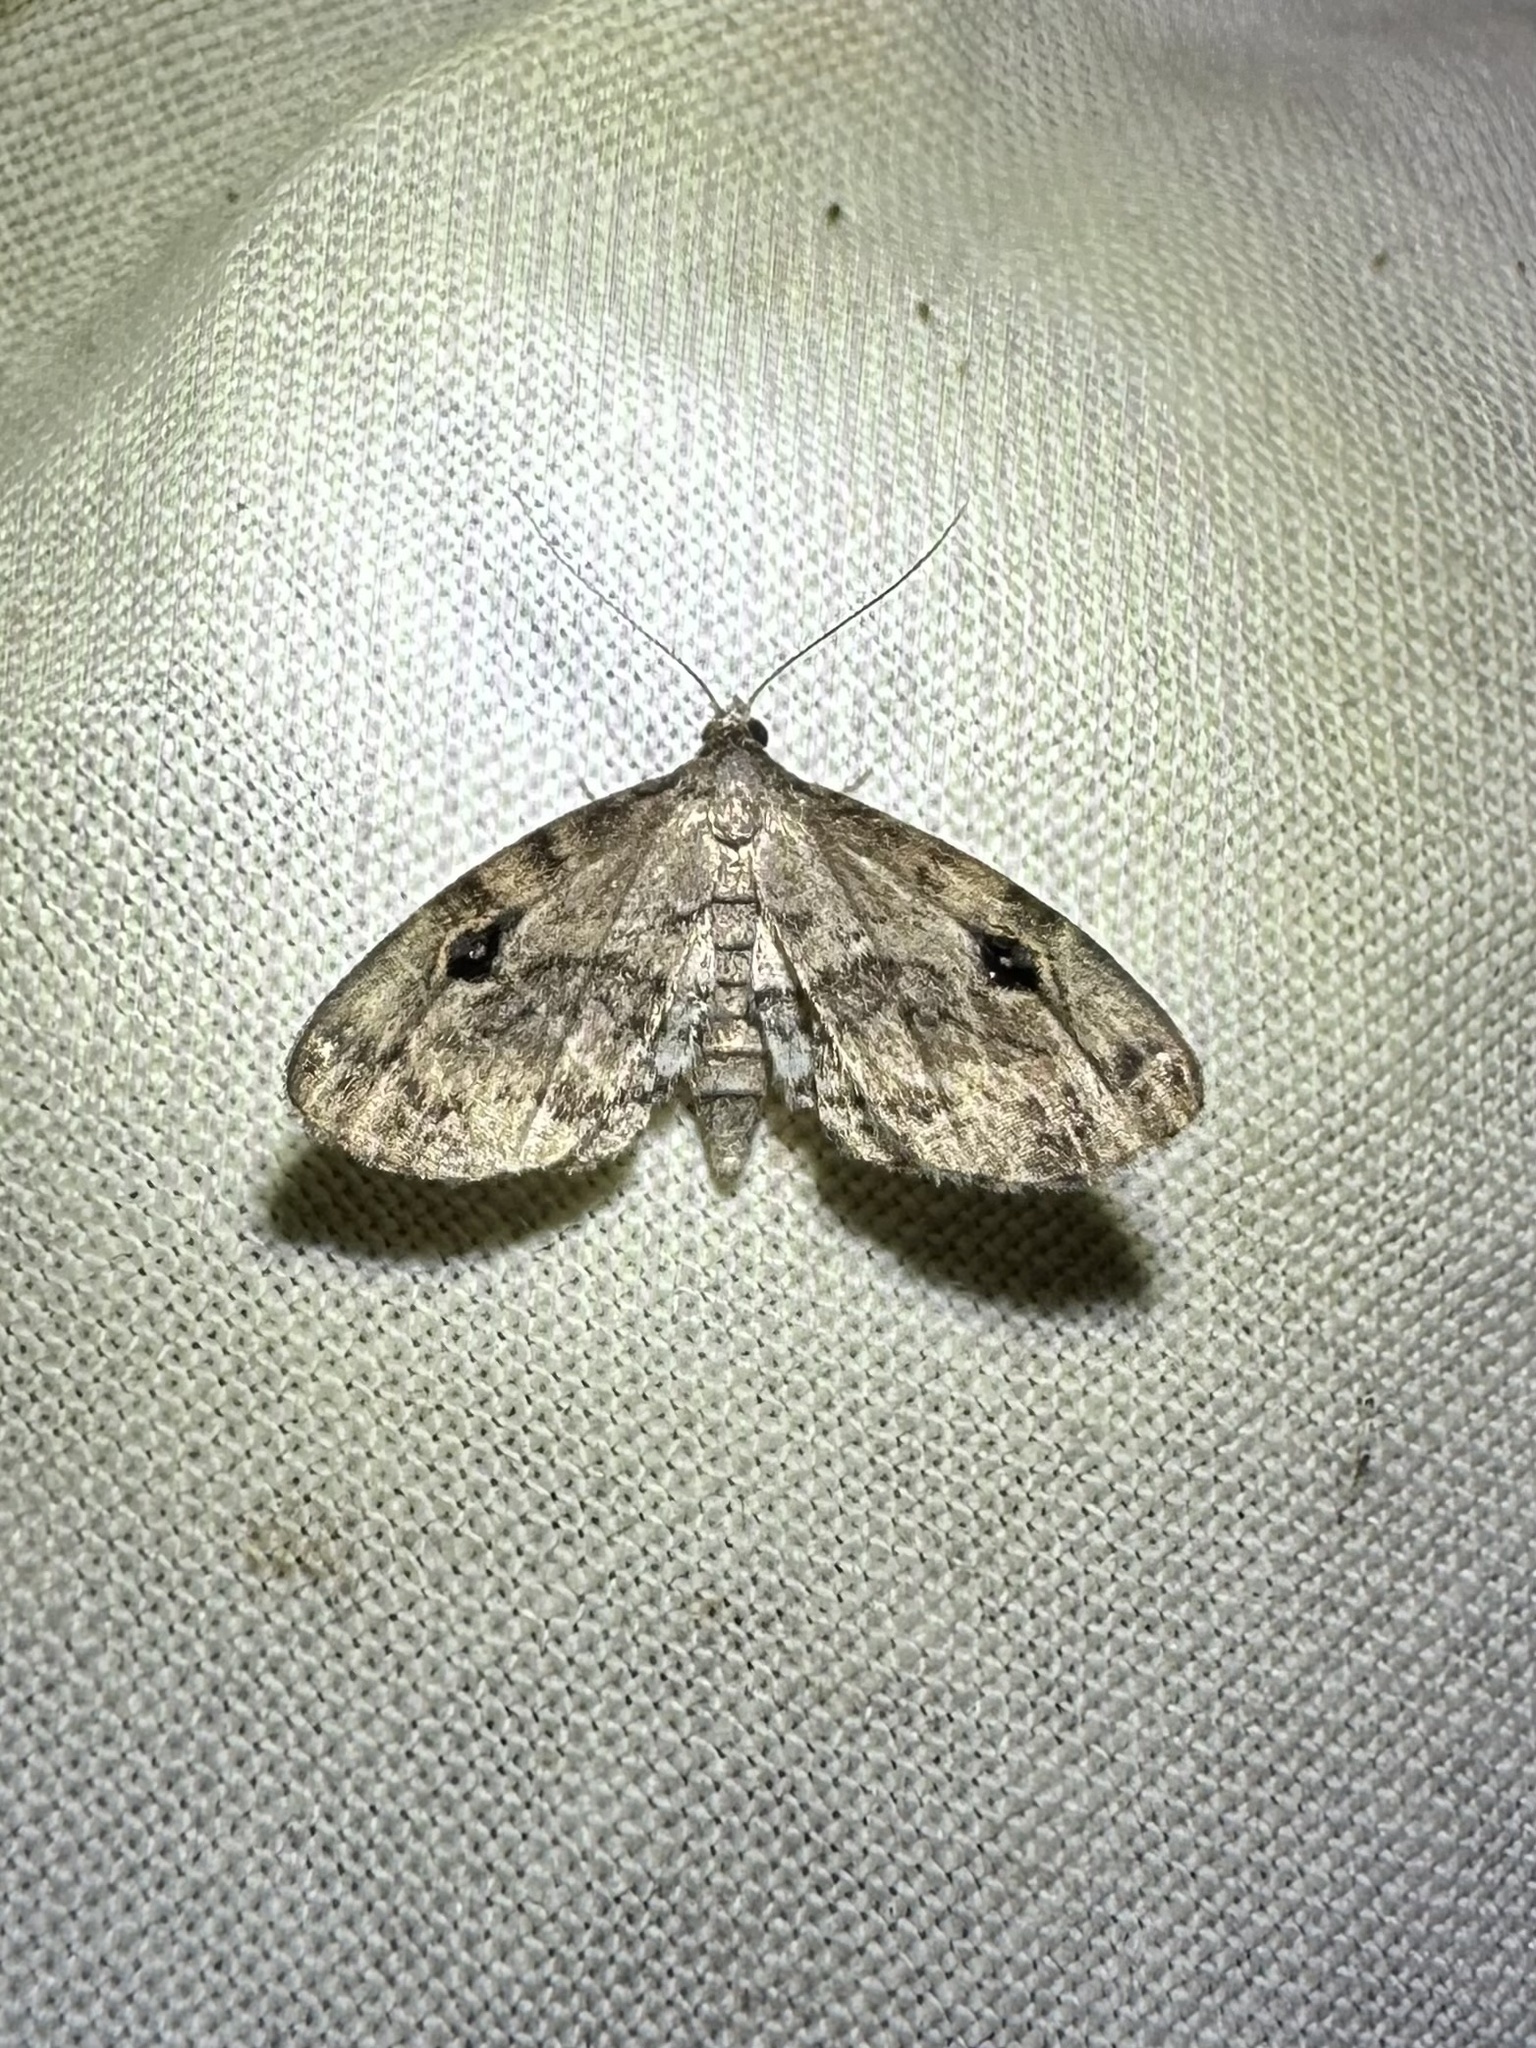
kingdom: Animalia
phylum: Arthropoda
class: Insecta
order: Lepidoptera
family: Erebidae
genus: Melanomma
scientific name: Melanomma auricinctaria
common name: Gold-lined melanomma moth
